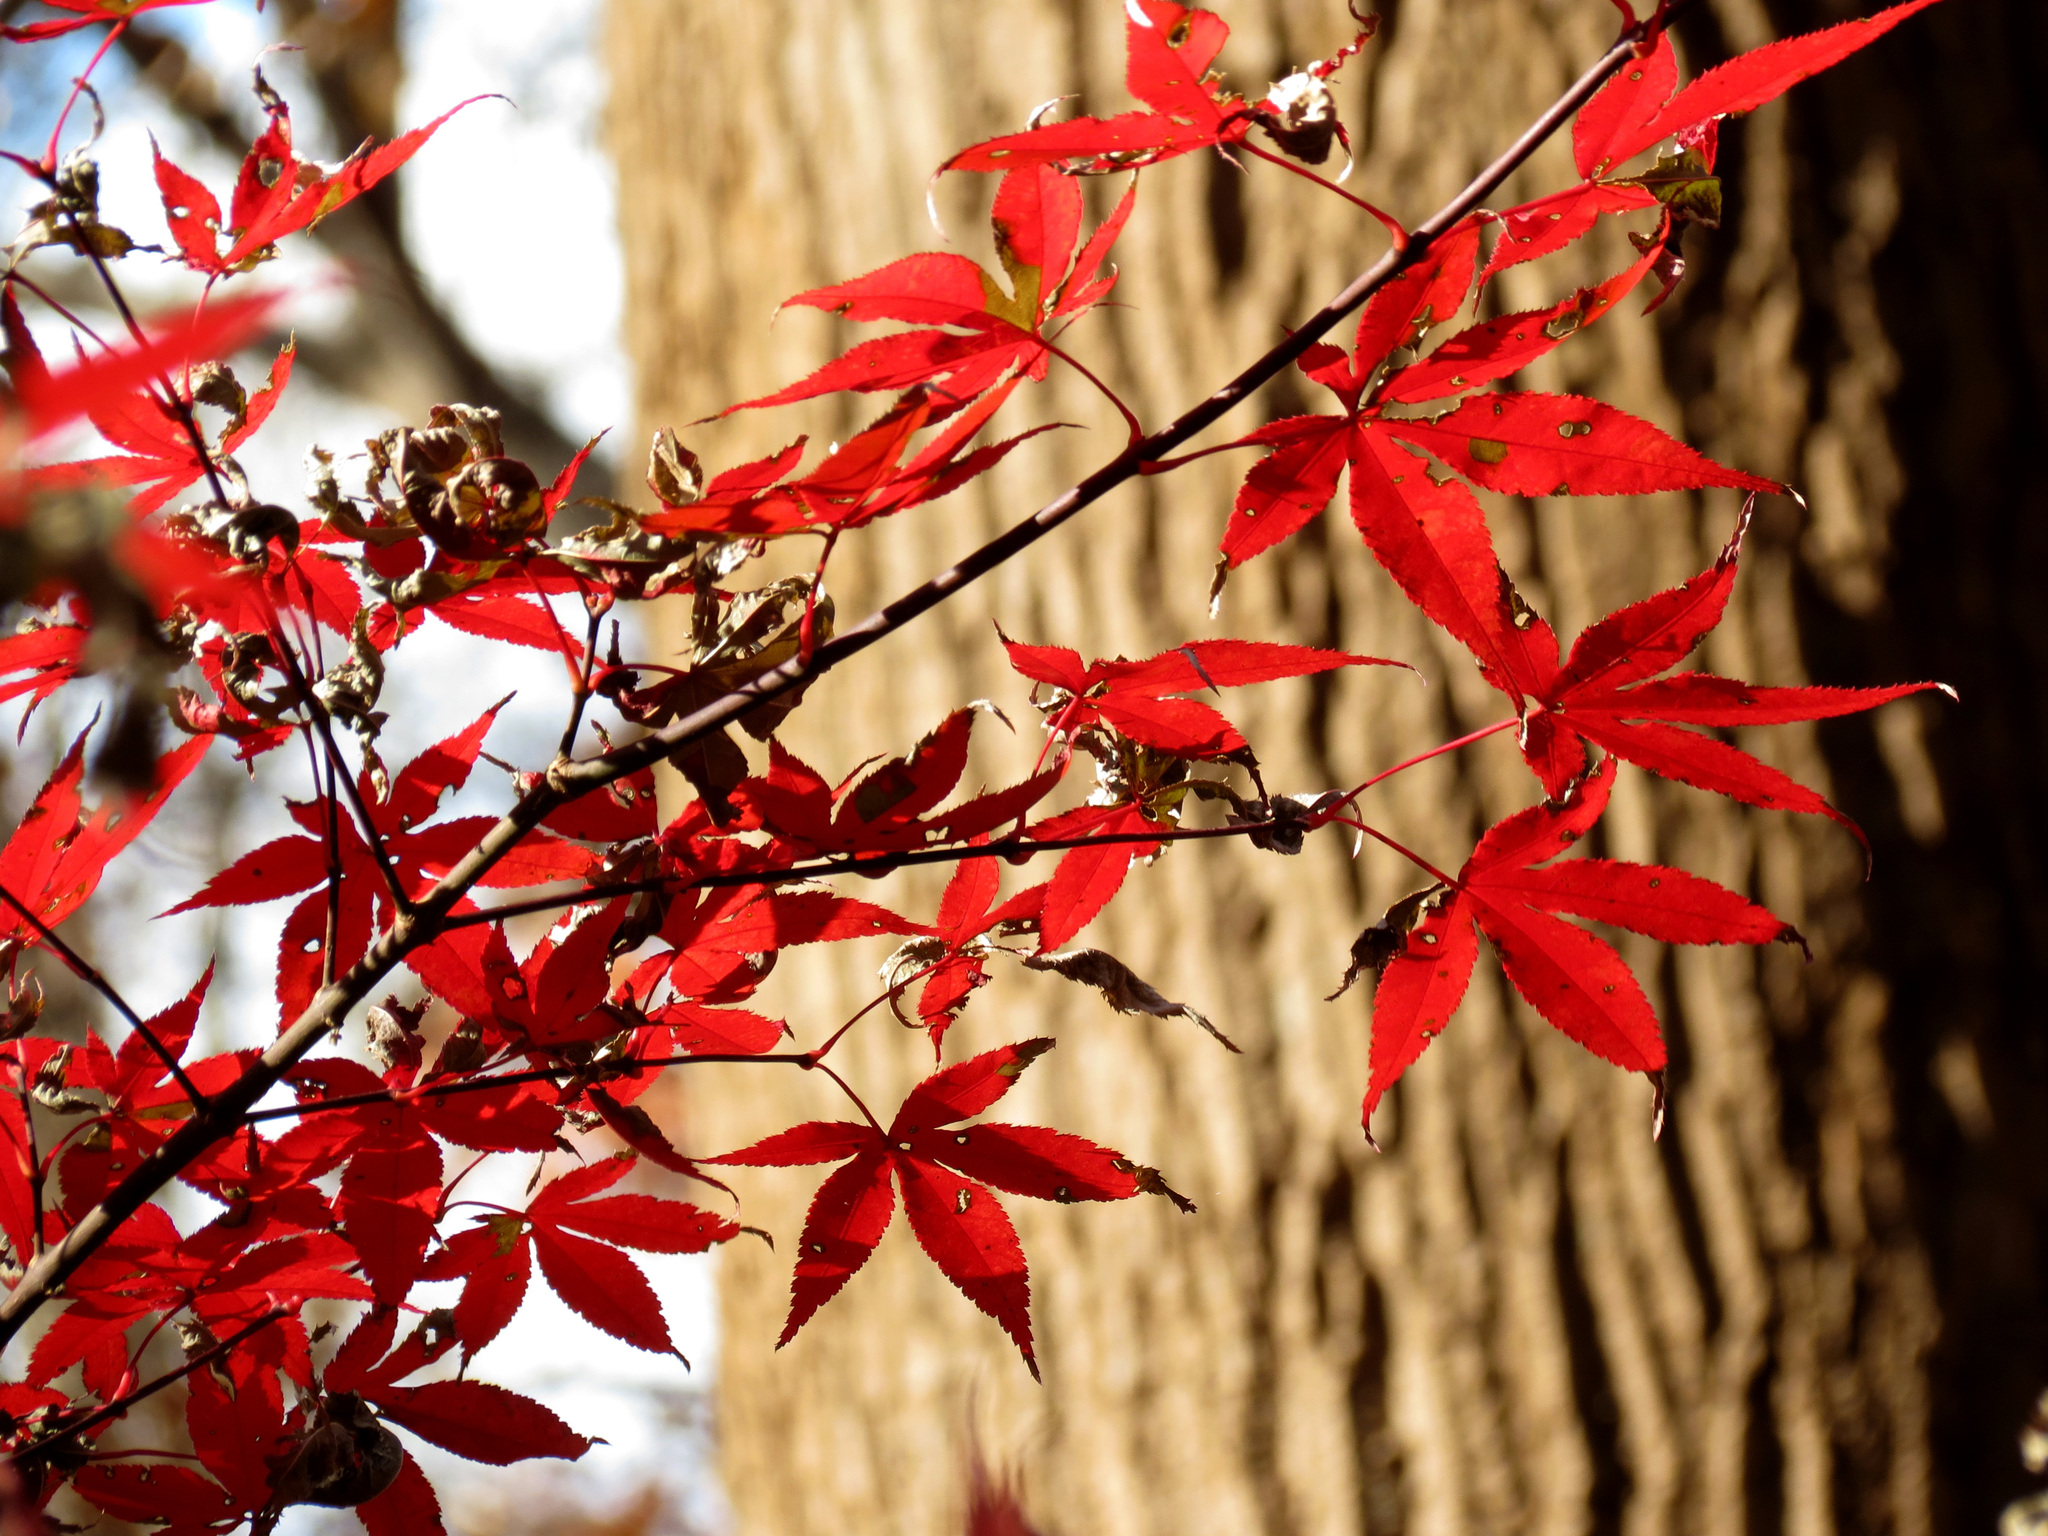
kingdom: Plantae
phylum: Tracheophyta
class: Magnoliopsida
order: Sapindales
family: Sapindaceae
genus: Acer
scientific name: Acer palmatum
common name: Japanese maple
